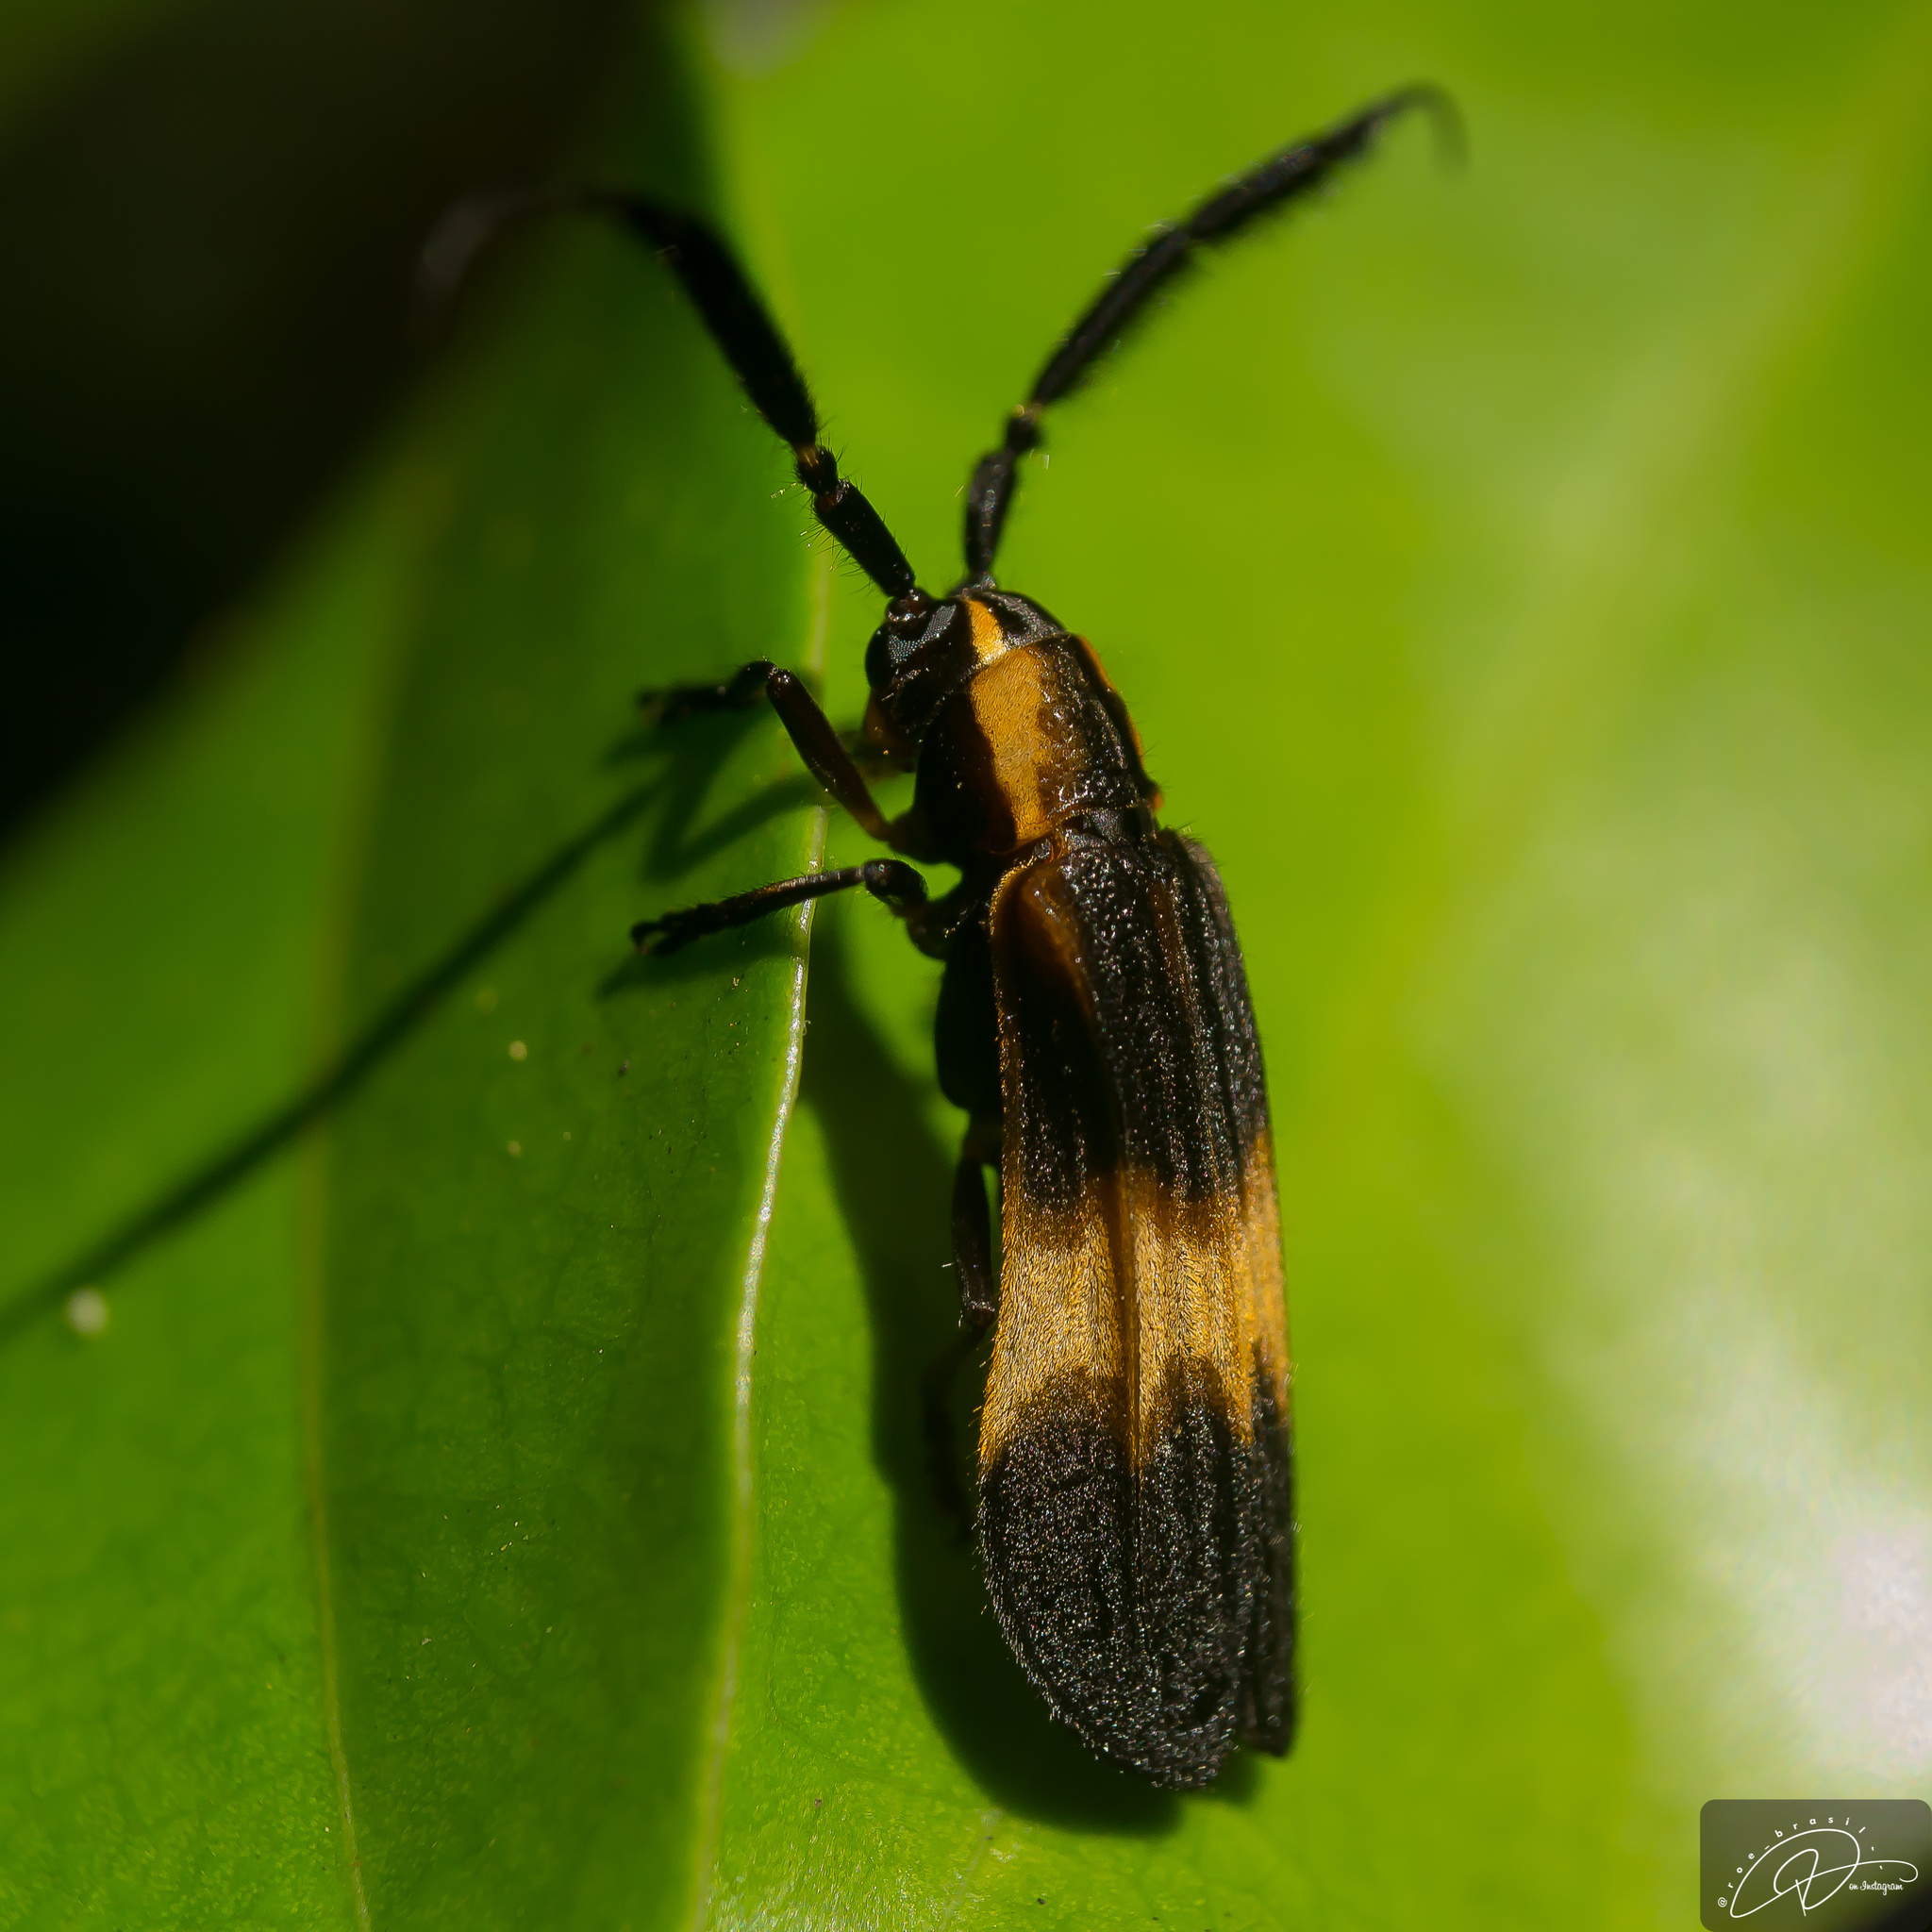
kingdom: Animalia
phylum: Arthropoda
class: Insecta
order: Coleoptera
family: Cerambycidae
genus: Lycaneptia
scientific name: Lycaneptia nigrobasalis
